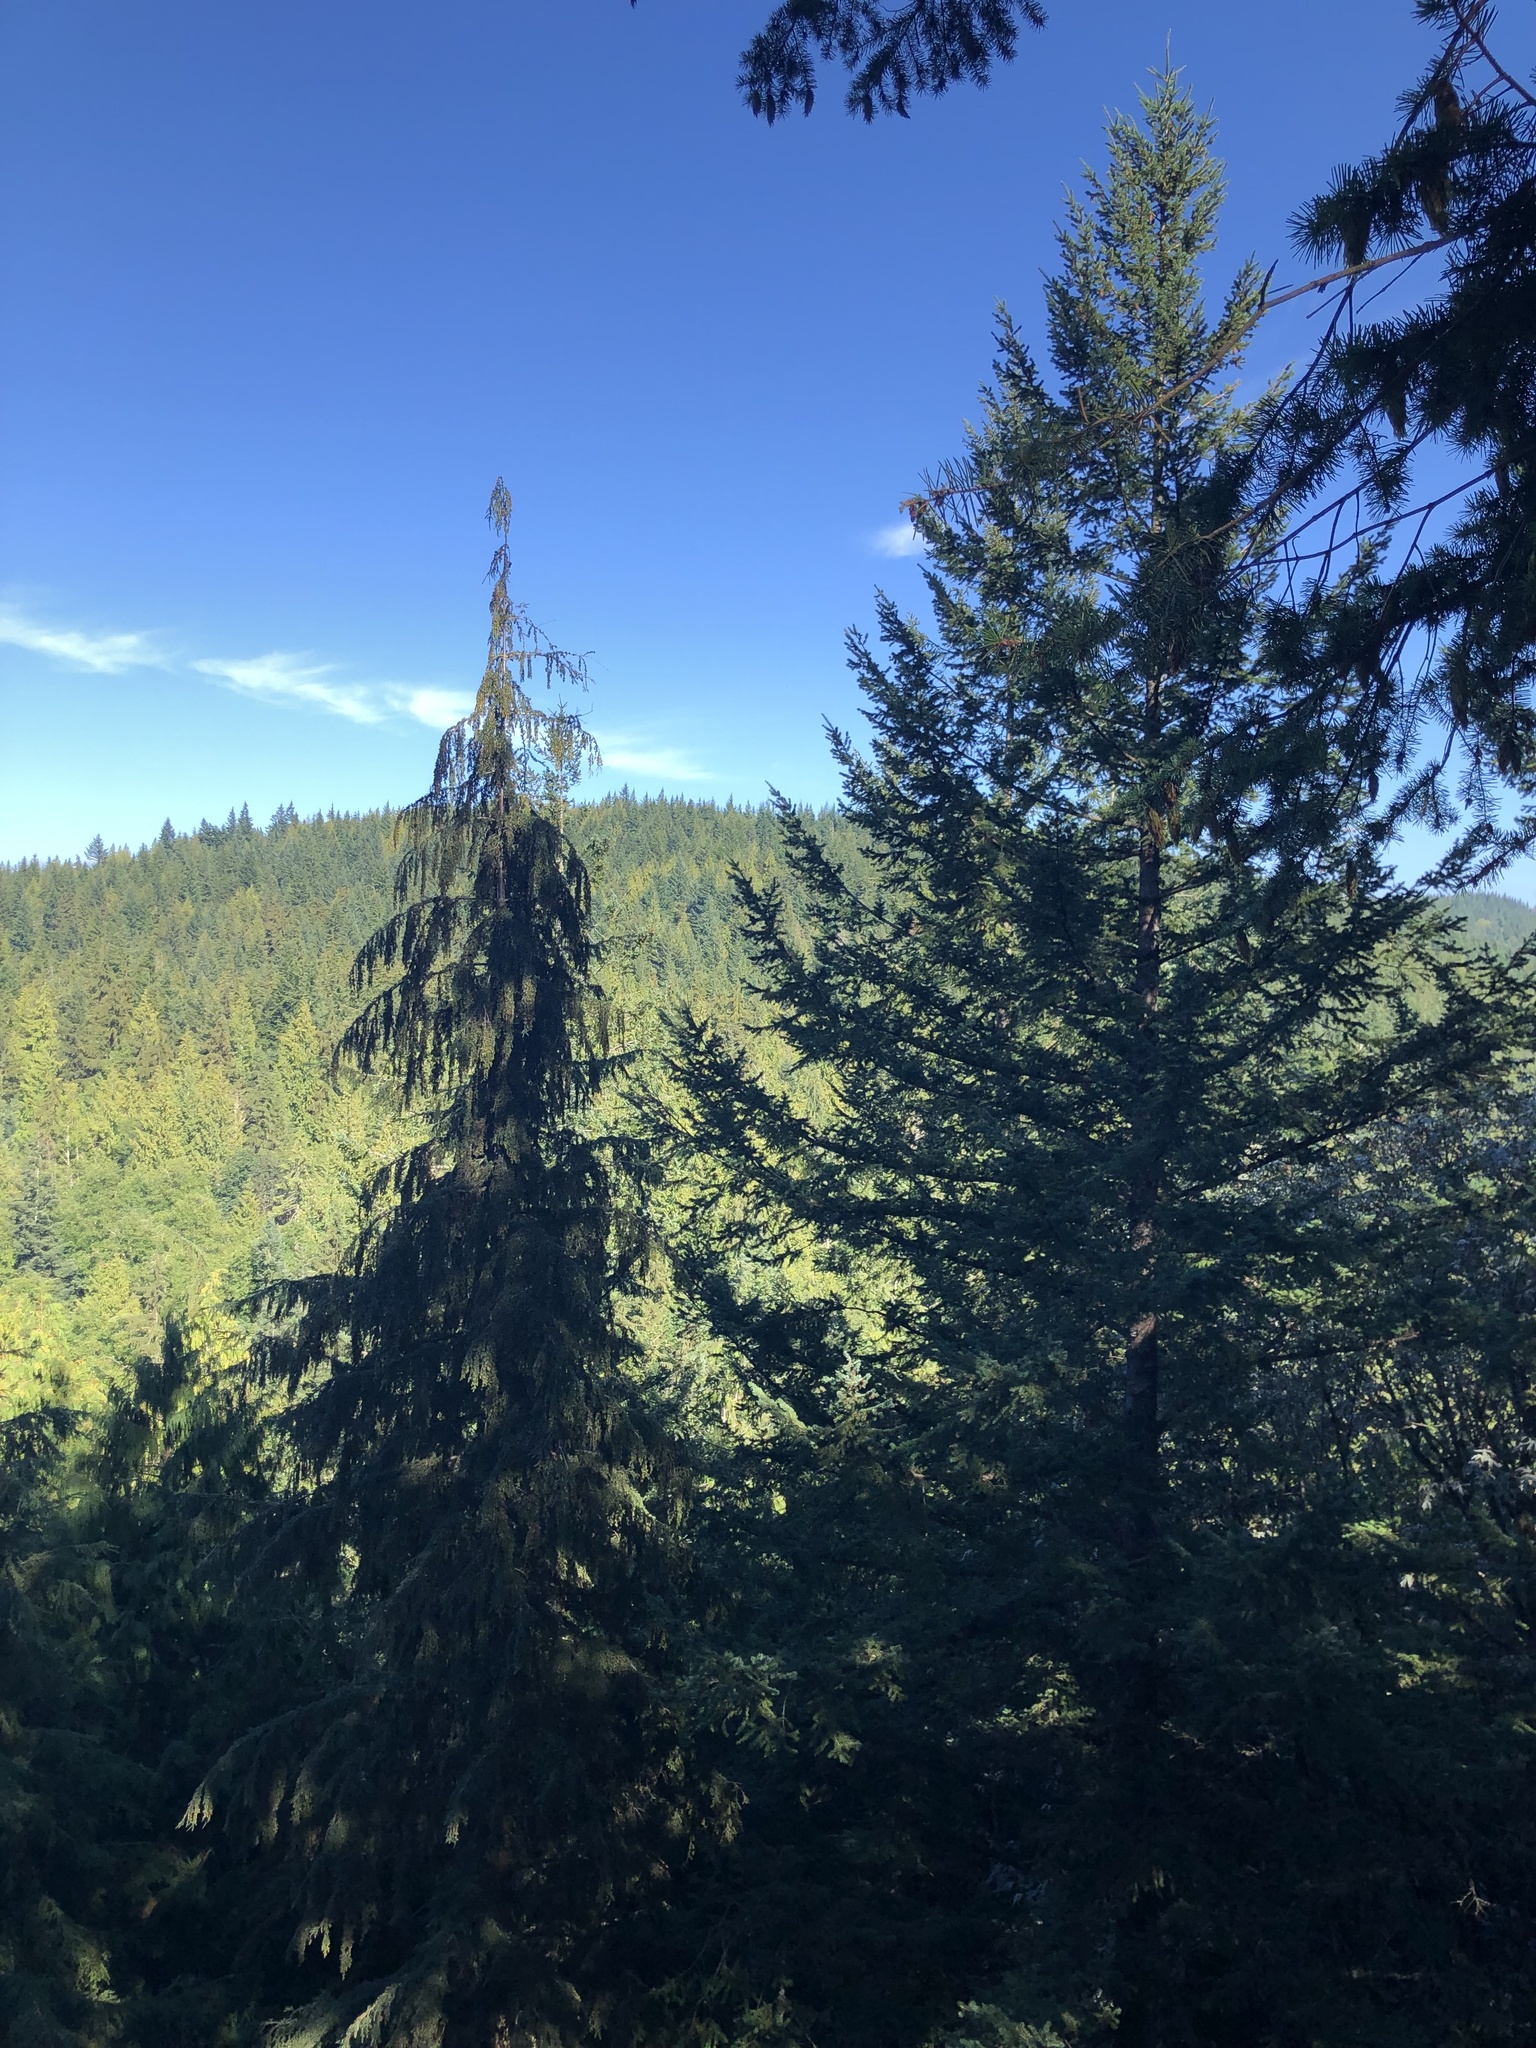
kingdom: Plantae
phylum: Tracheophyta
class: Pinopsida
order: Pinales
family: Pinaceae
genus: Pseudotsuga
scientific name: Pseudotsuga menziesii
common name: Douglas fir
